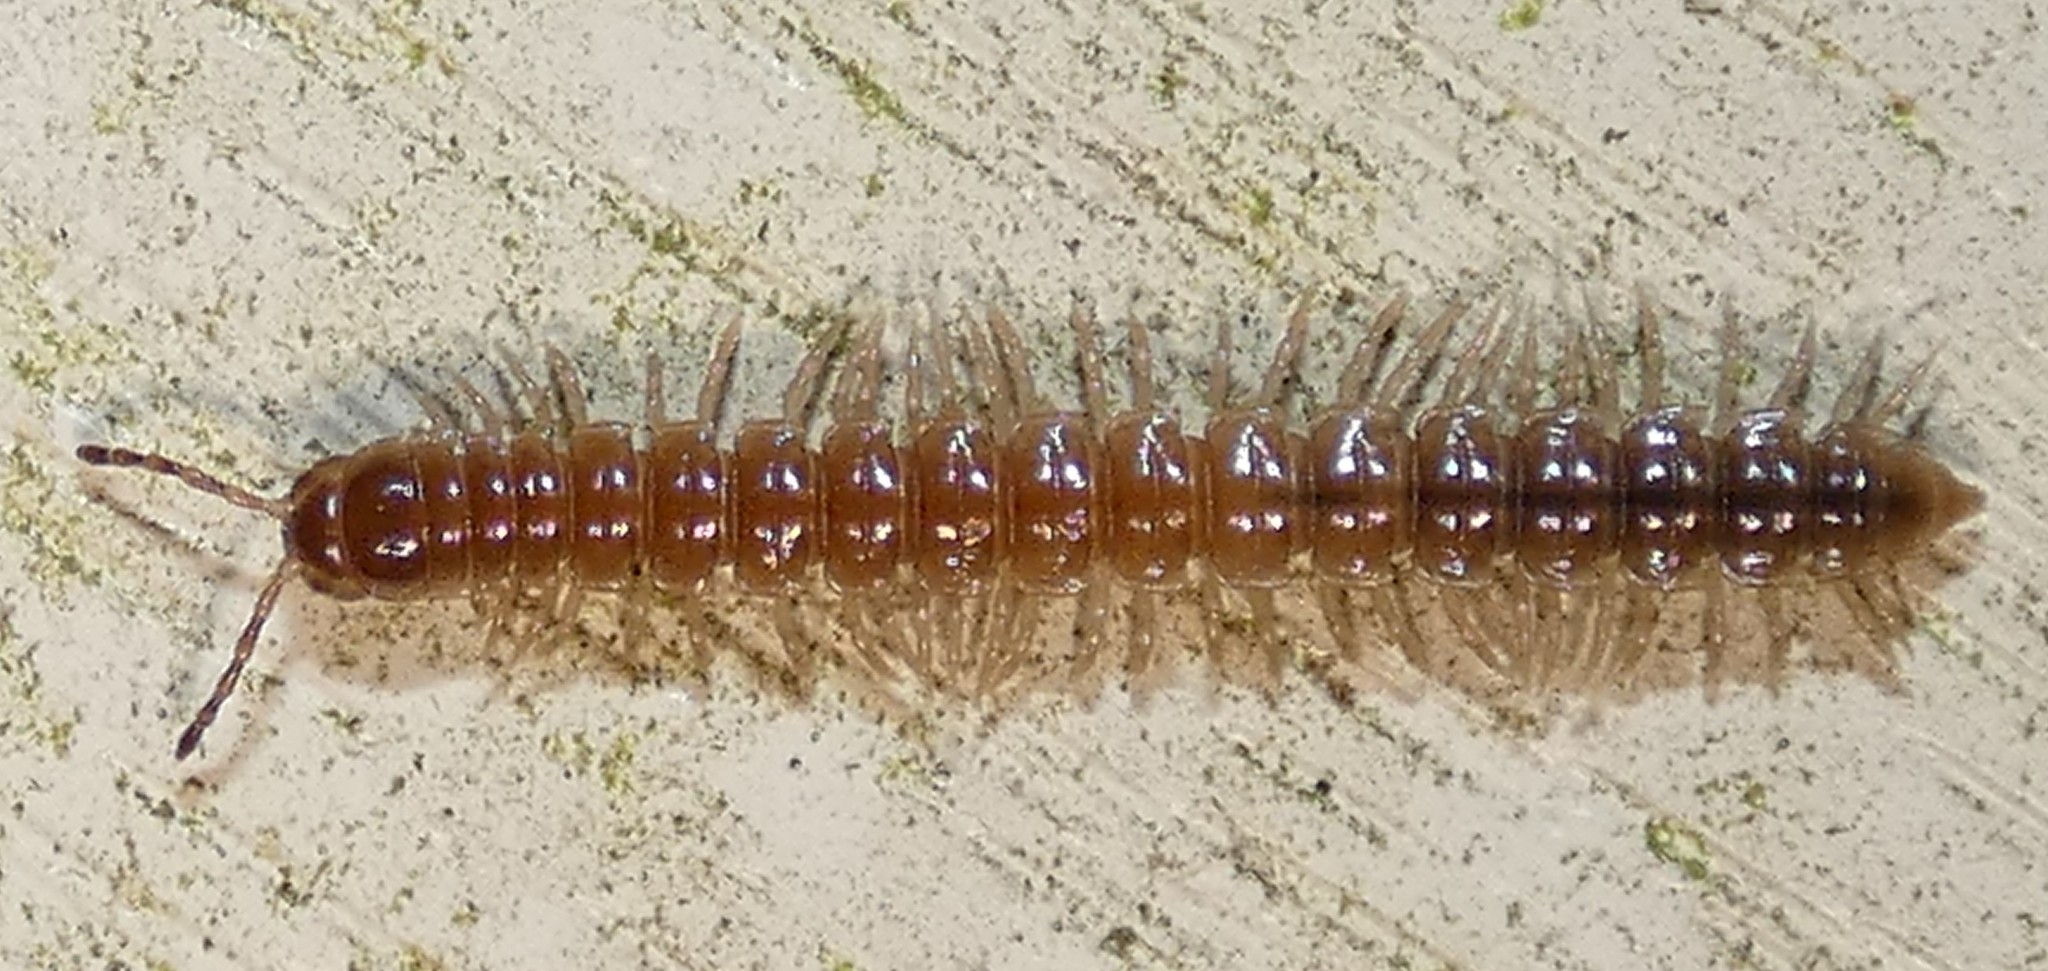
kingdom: Animalia
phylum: Arthropoda
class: Diplopoda
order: Polydesmida
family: Paradoxosomatidae
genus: Oxidus
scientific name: Oxidus gracilis
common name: Greenhouse millipede
